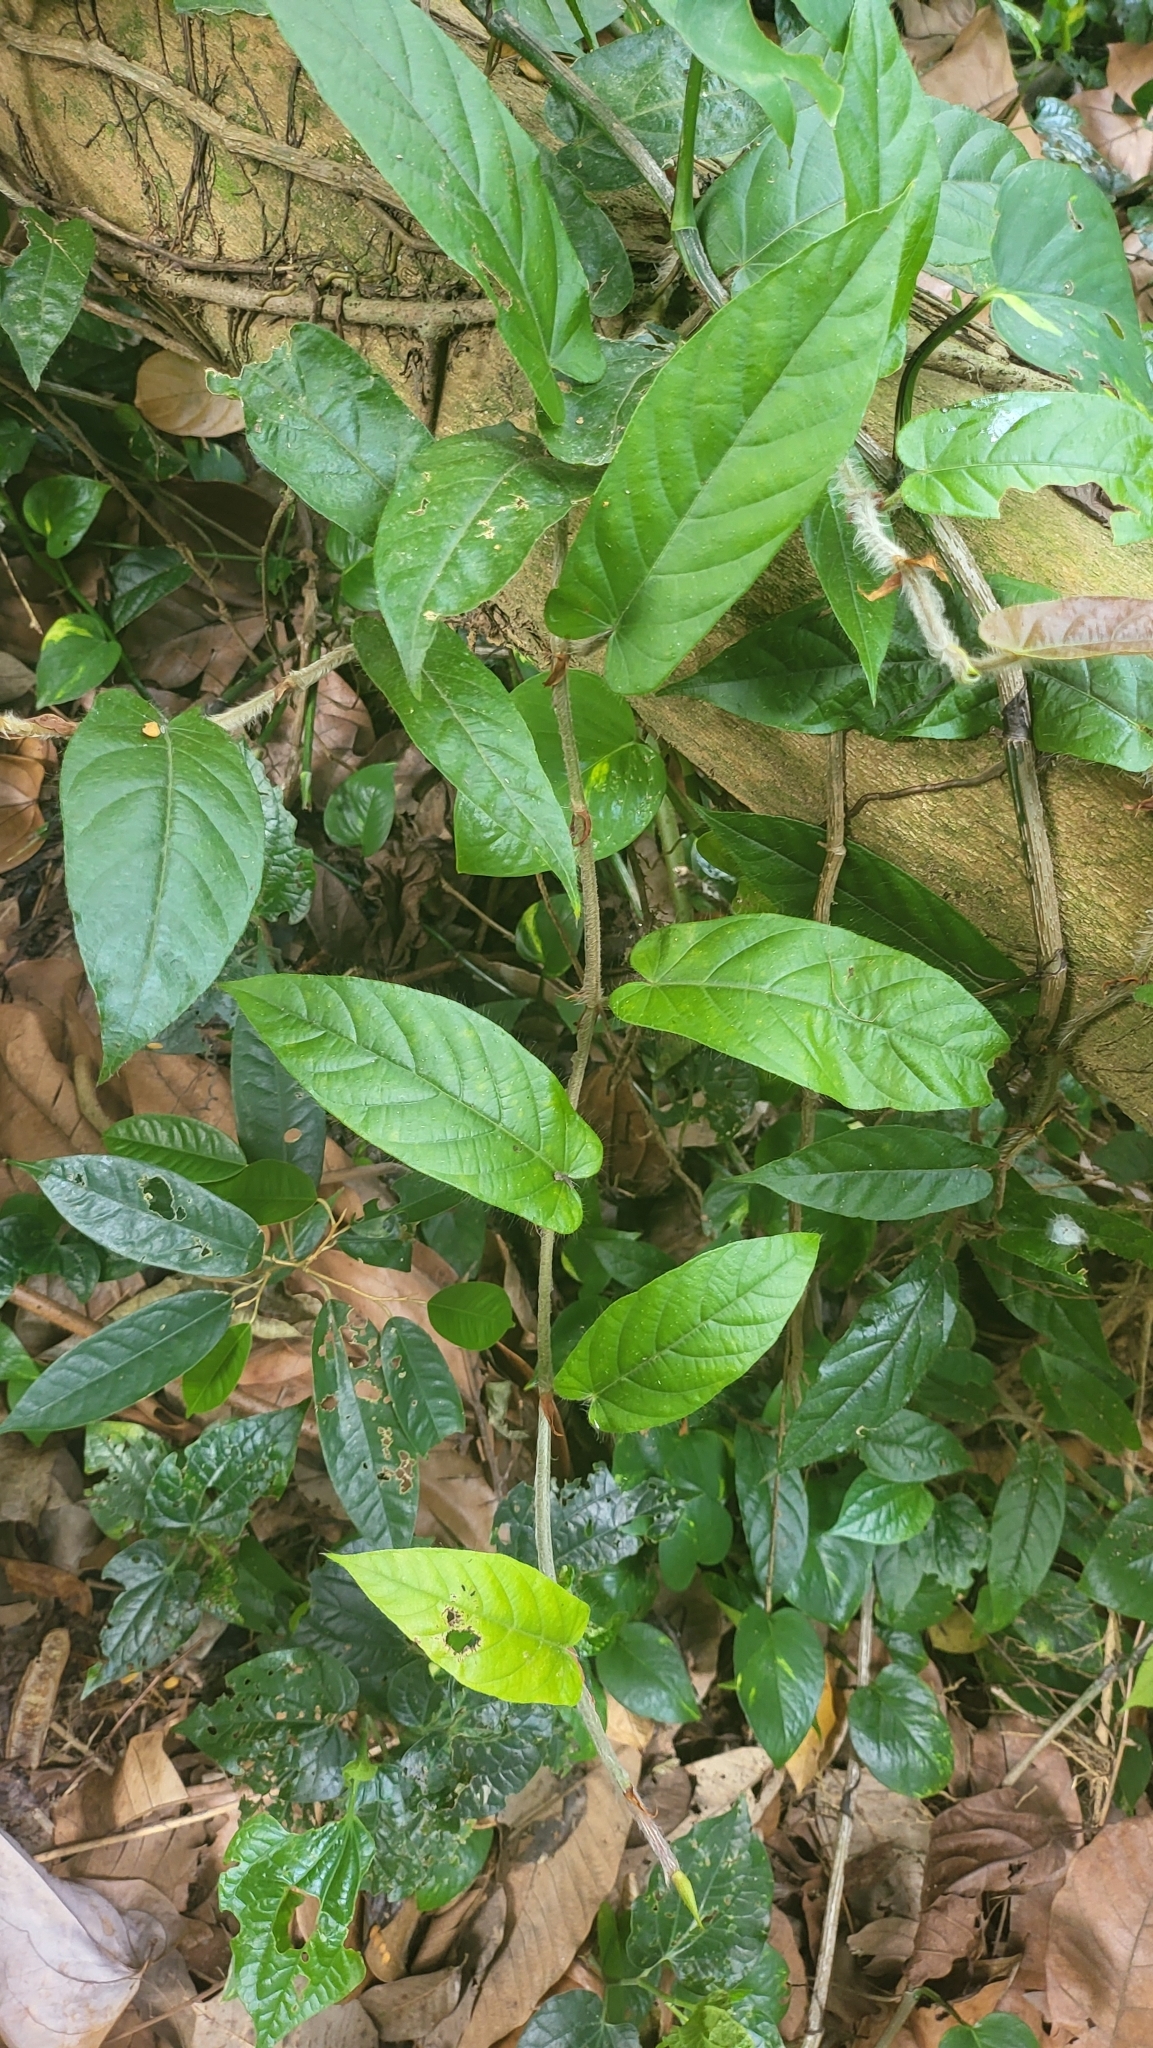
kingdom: Plantae
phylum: Tracheophyta
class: Magnoliopsida
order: Rosales
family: Moraceae
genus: Ficus
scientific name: Ficus sagittata
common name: Trailing fig
